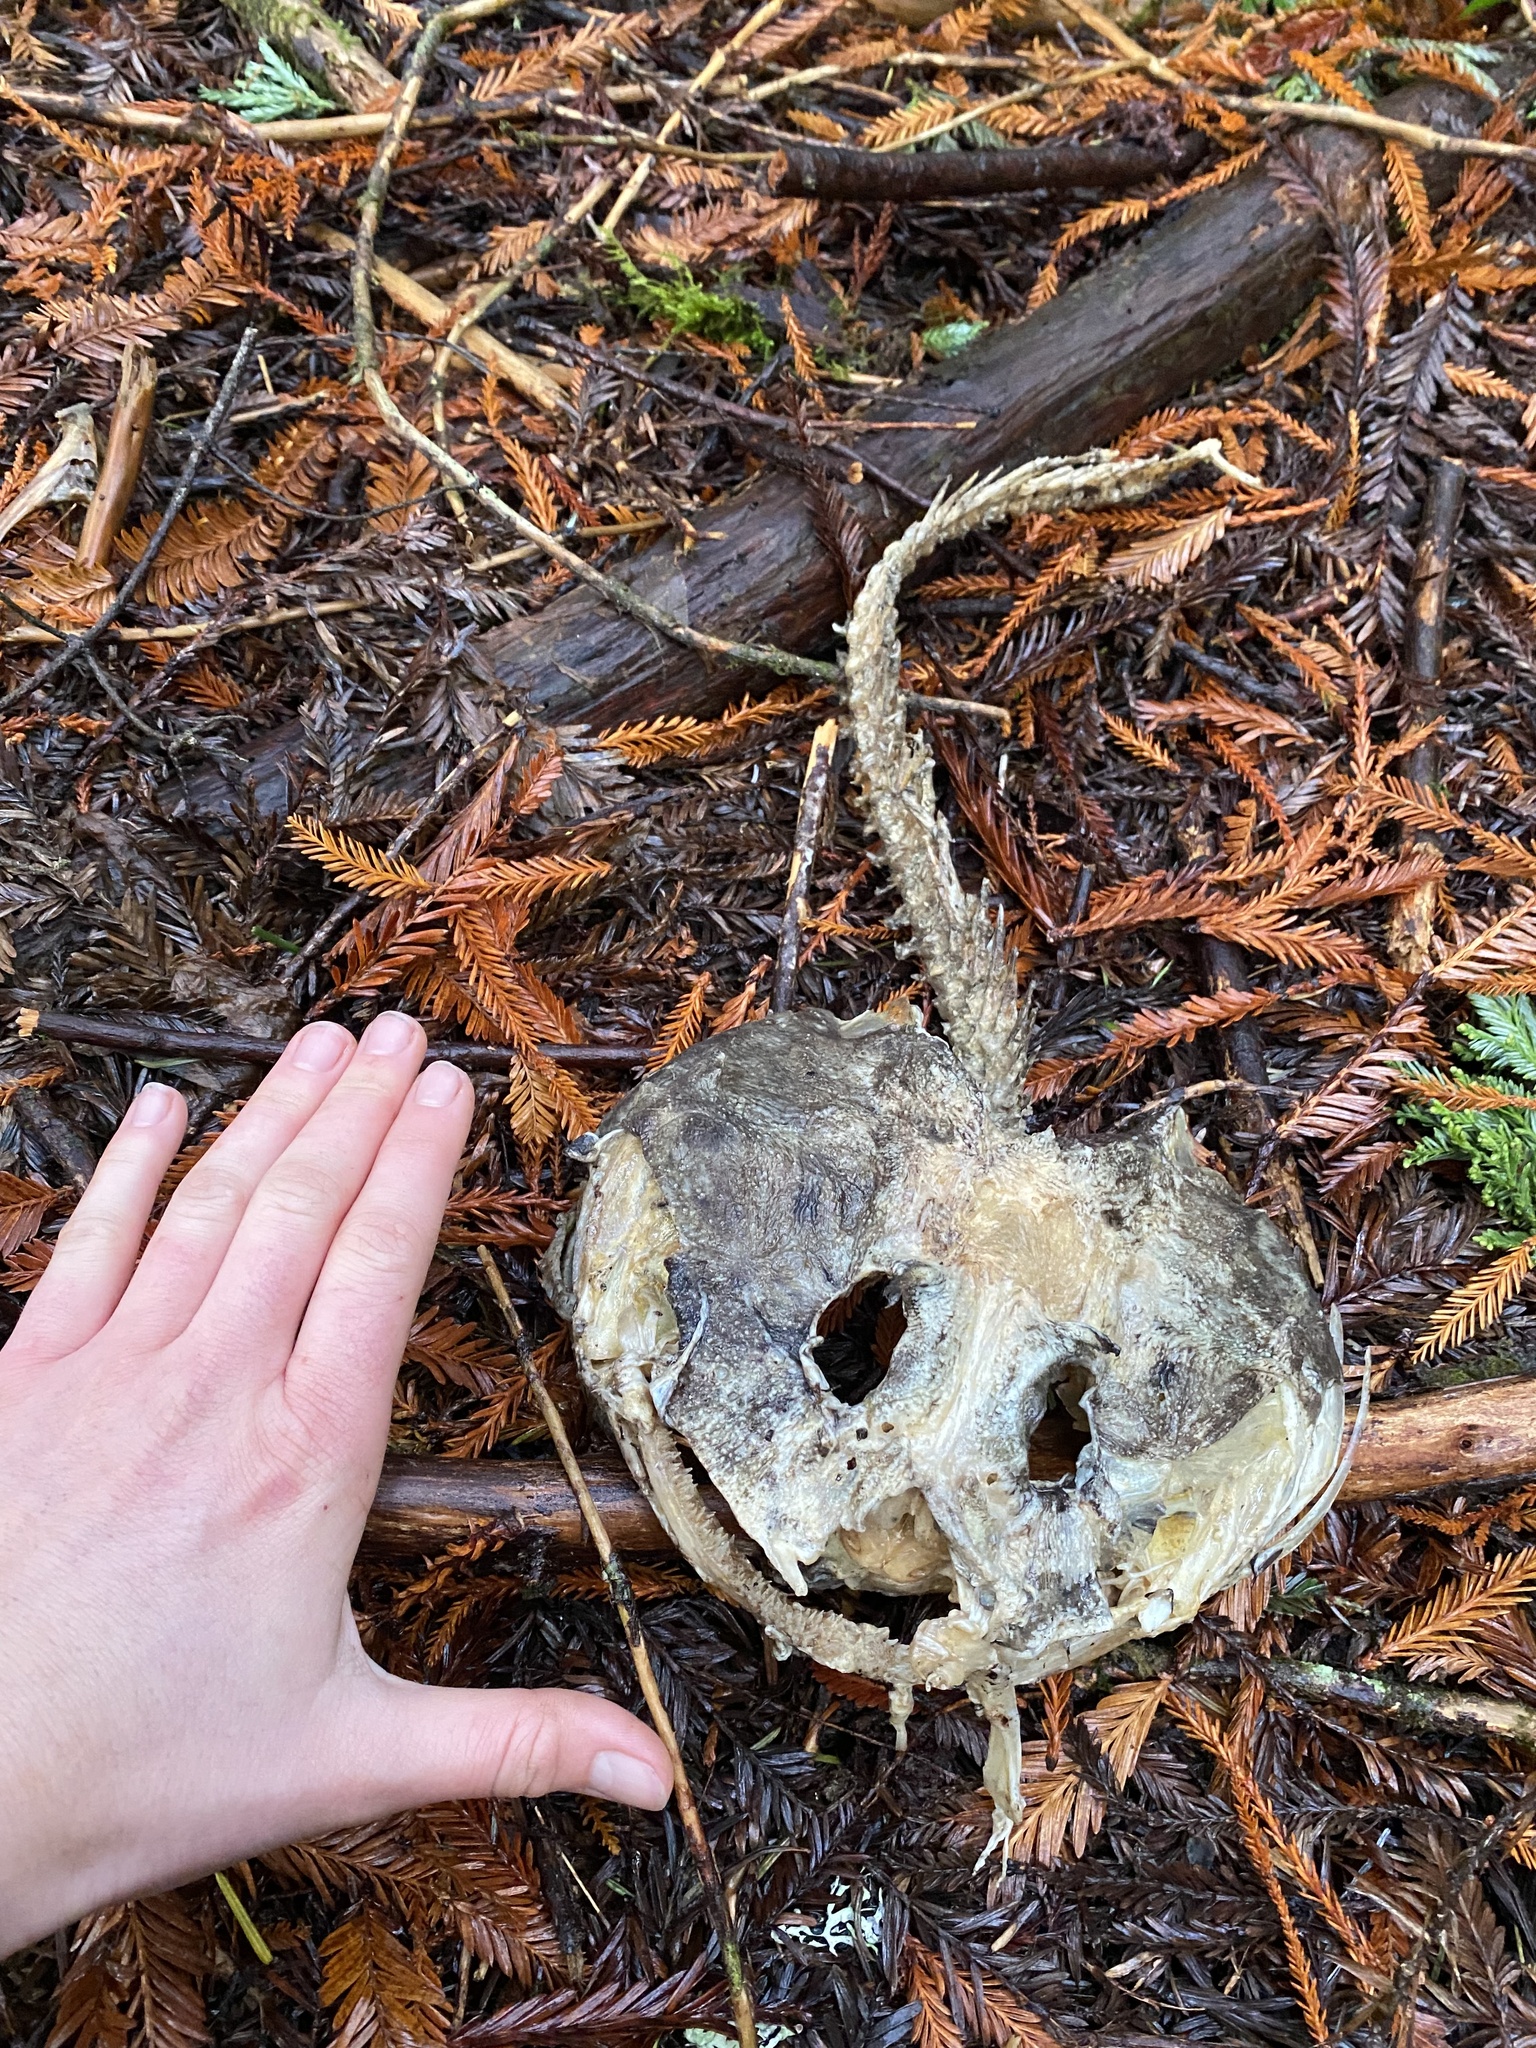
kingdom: Animalia
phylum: Chordata
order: Scorpaeniformes
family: Cottidae
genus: Scorpaenichthys
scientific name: Scorpaenichthys marmoratus
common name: Cabezon
